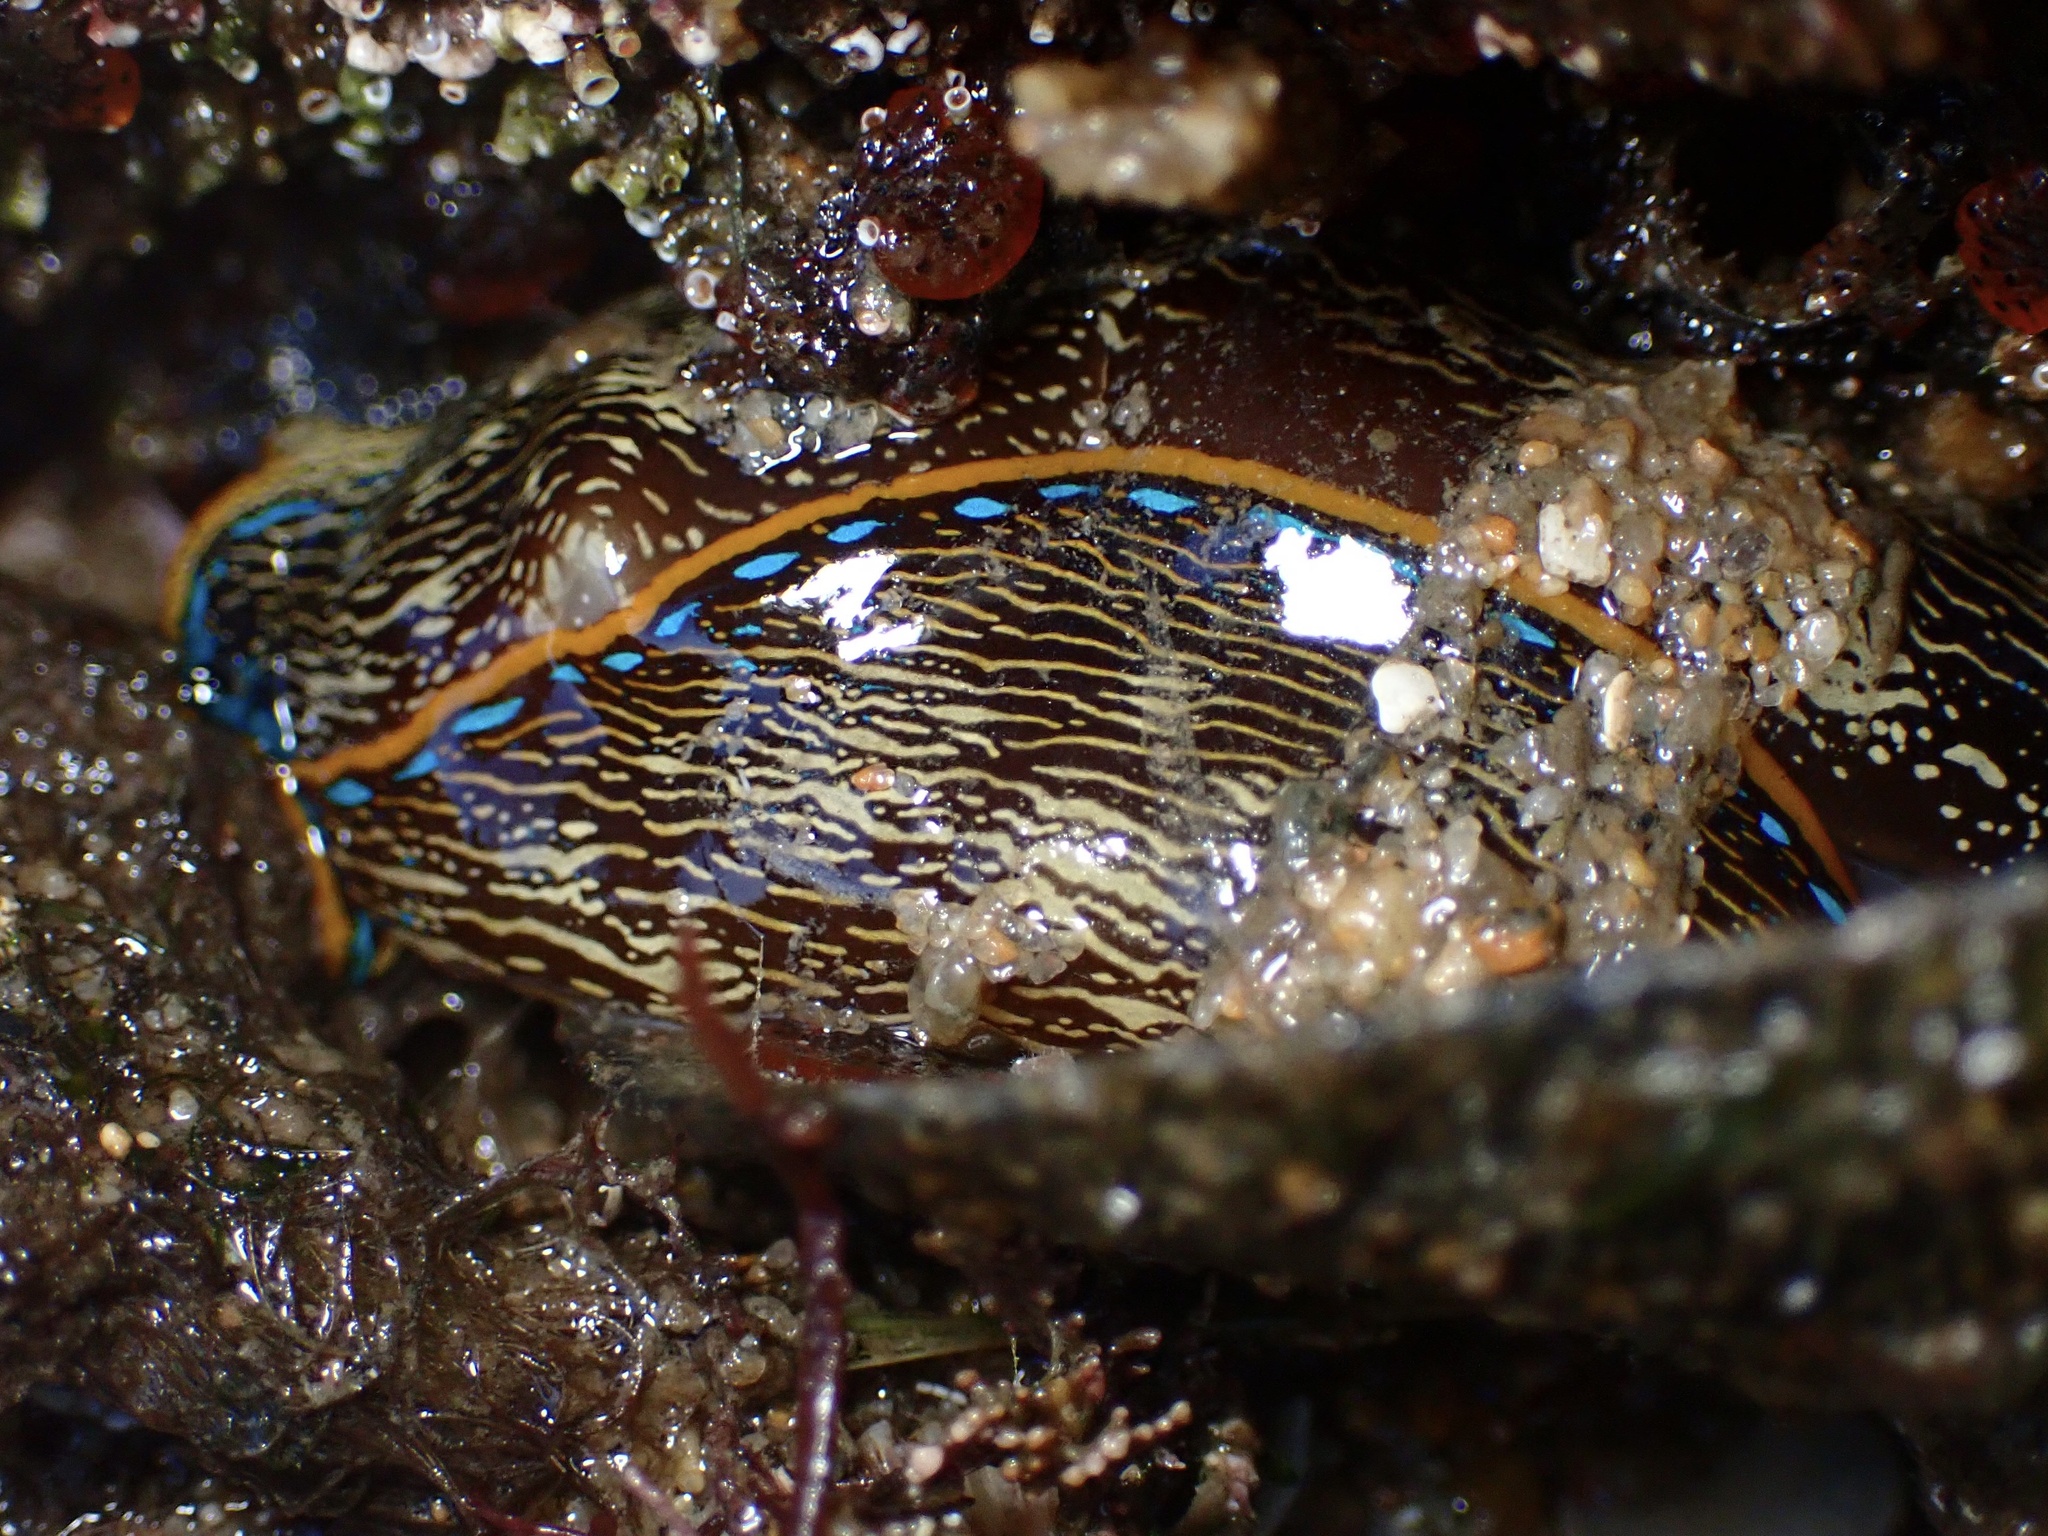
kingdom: Animalia
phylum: Mollusca
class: Gastropoda
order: Cephalaspidea
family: Aglajidae
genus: Navanax
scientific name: Navanax inermis
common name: California aglaja
